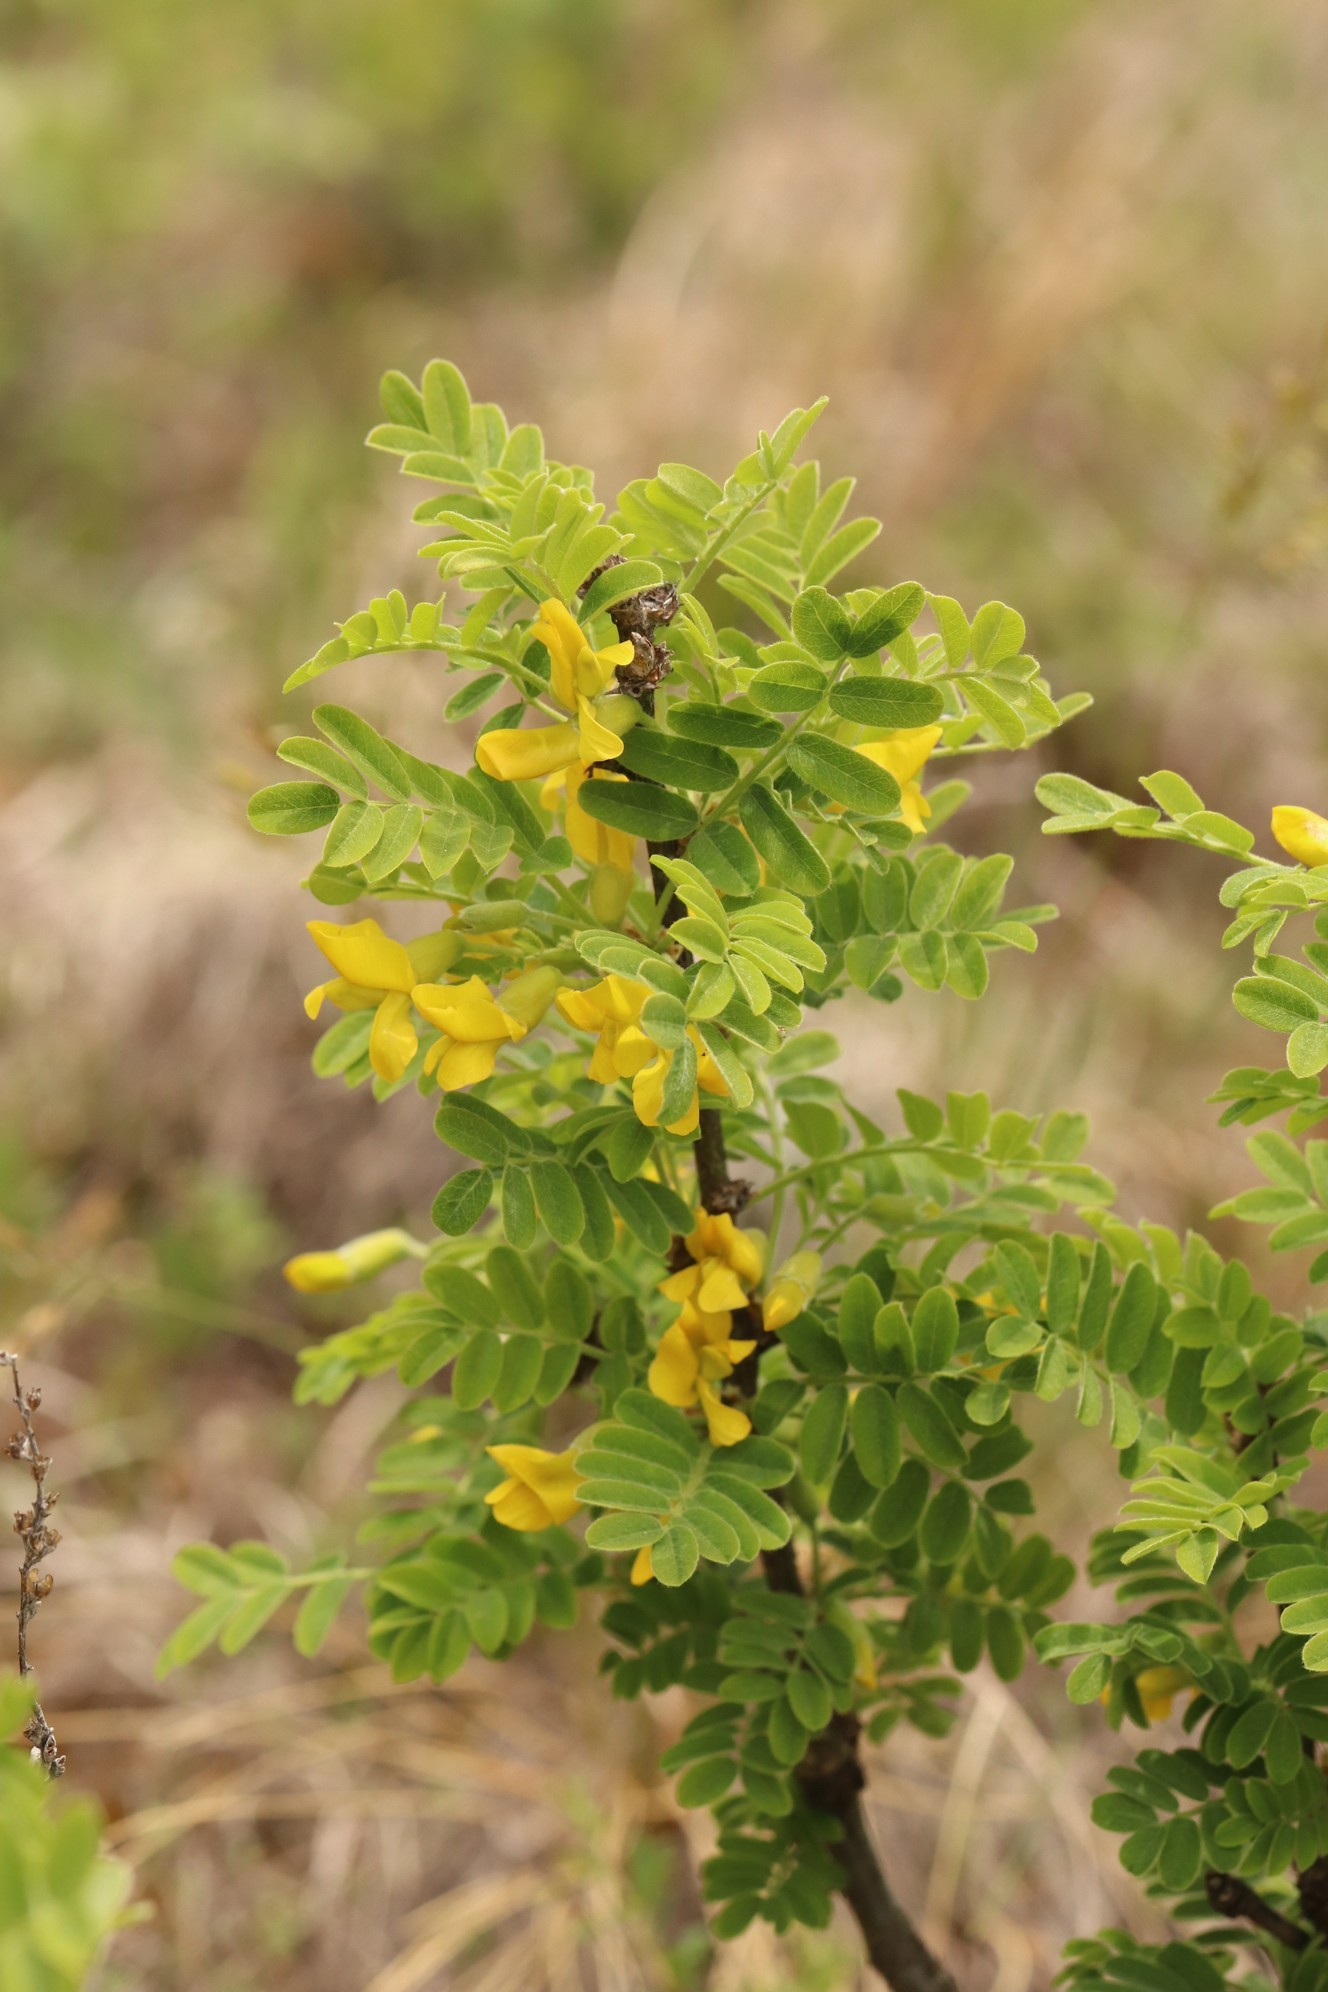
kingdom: Plantae
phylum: Tracheophyta
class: Magnoliopsida
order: Fabales
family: Fabaceae
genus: Caragana
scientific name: Caragana arborescens
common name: Siberian peashrub
